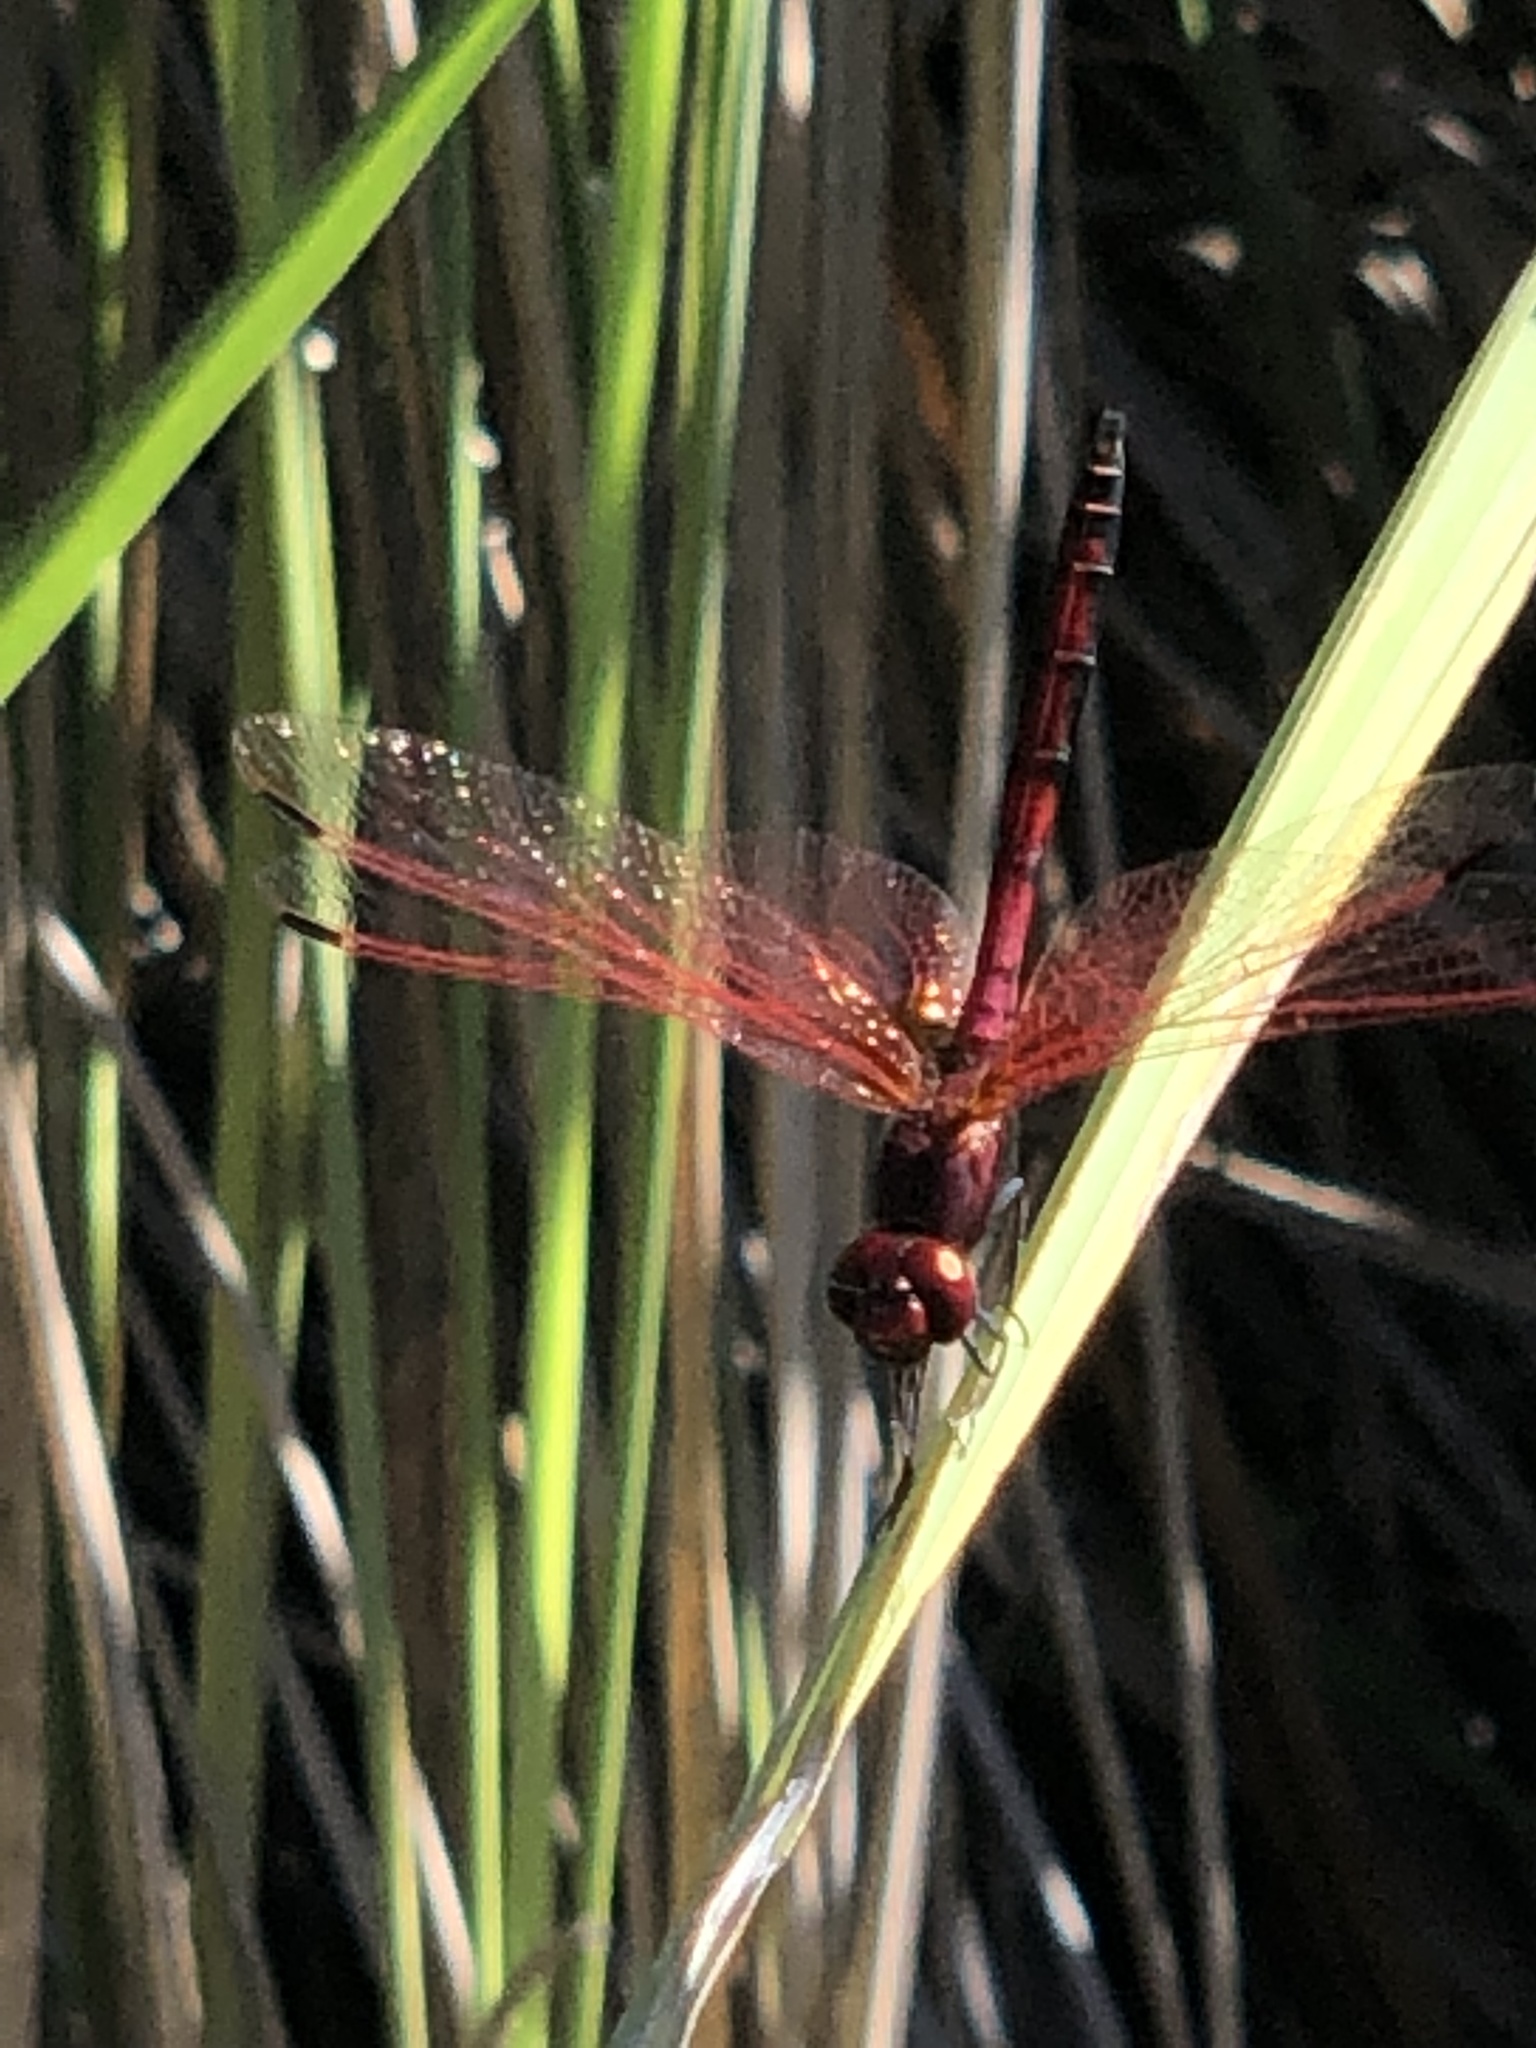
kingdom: Animalia
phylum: Arthropoda
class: Insecta
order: Odonata
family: Libellulidae
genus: Trithemis
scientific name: Trithemis arteriosa
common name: Red-veined dropwing
